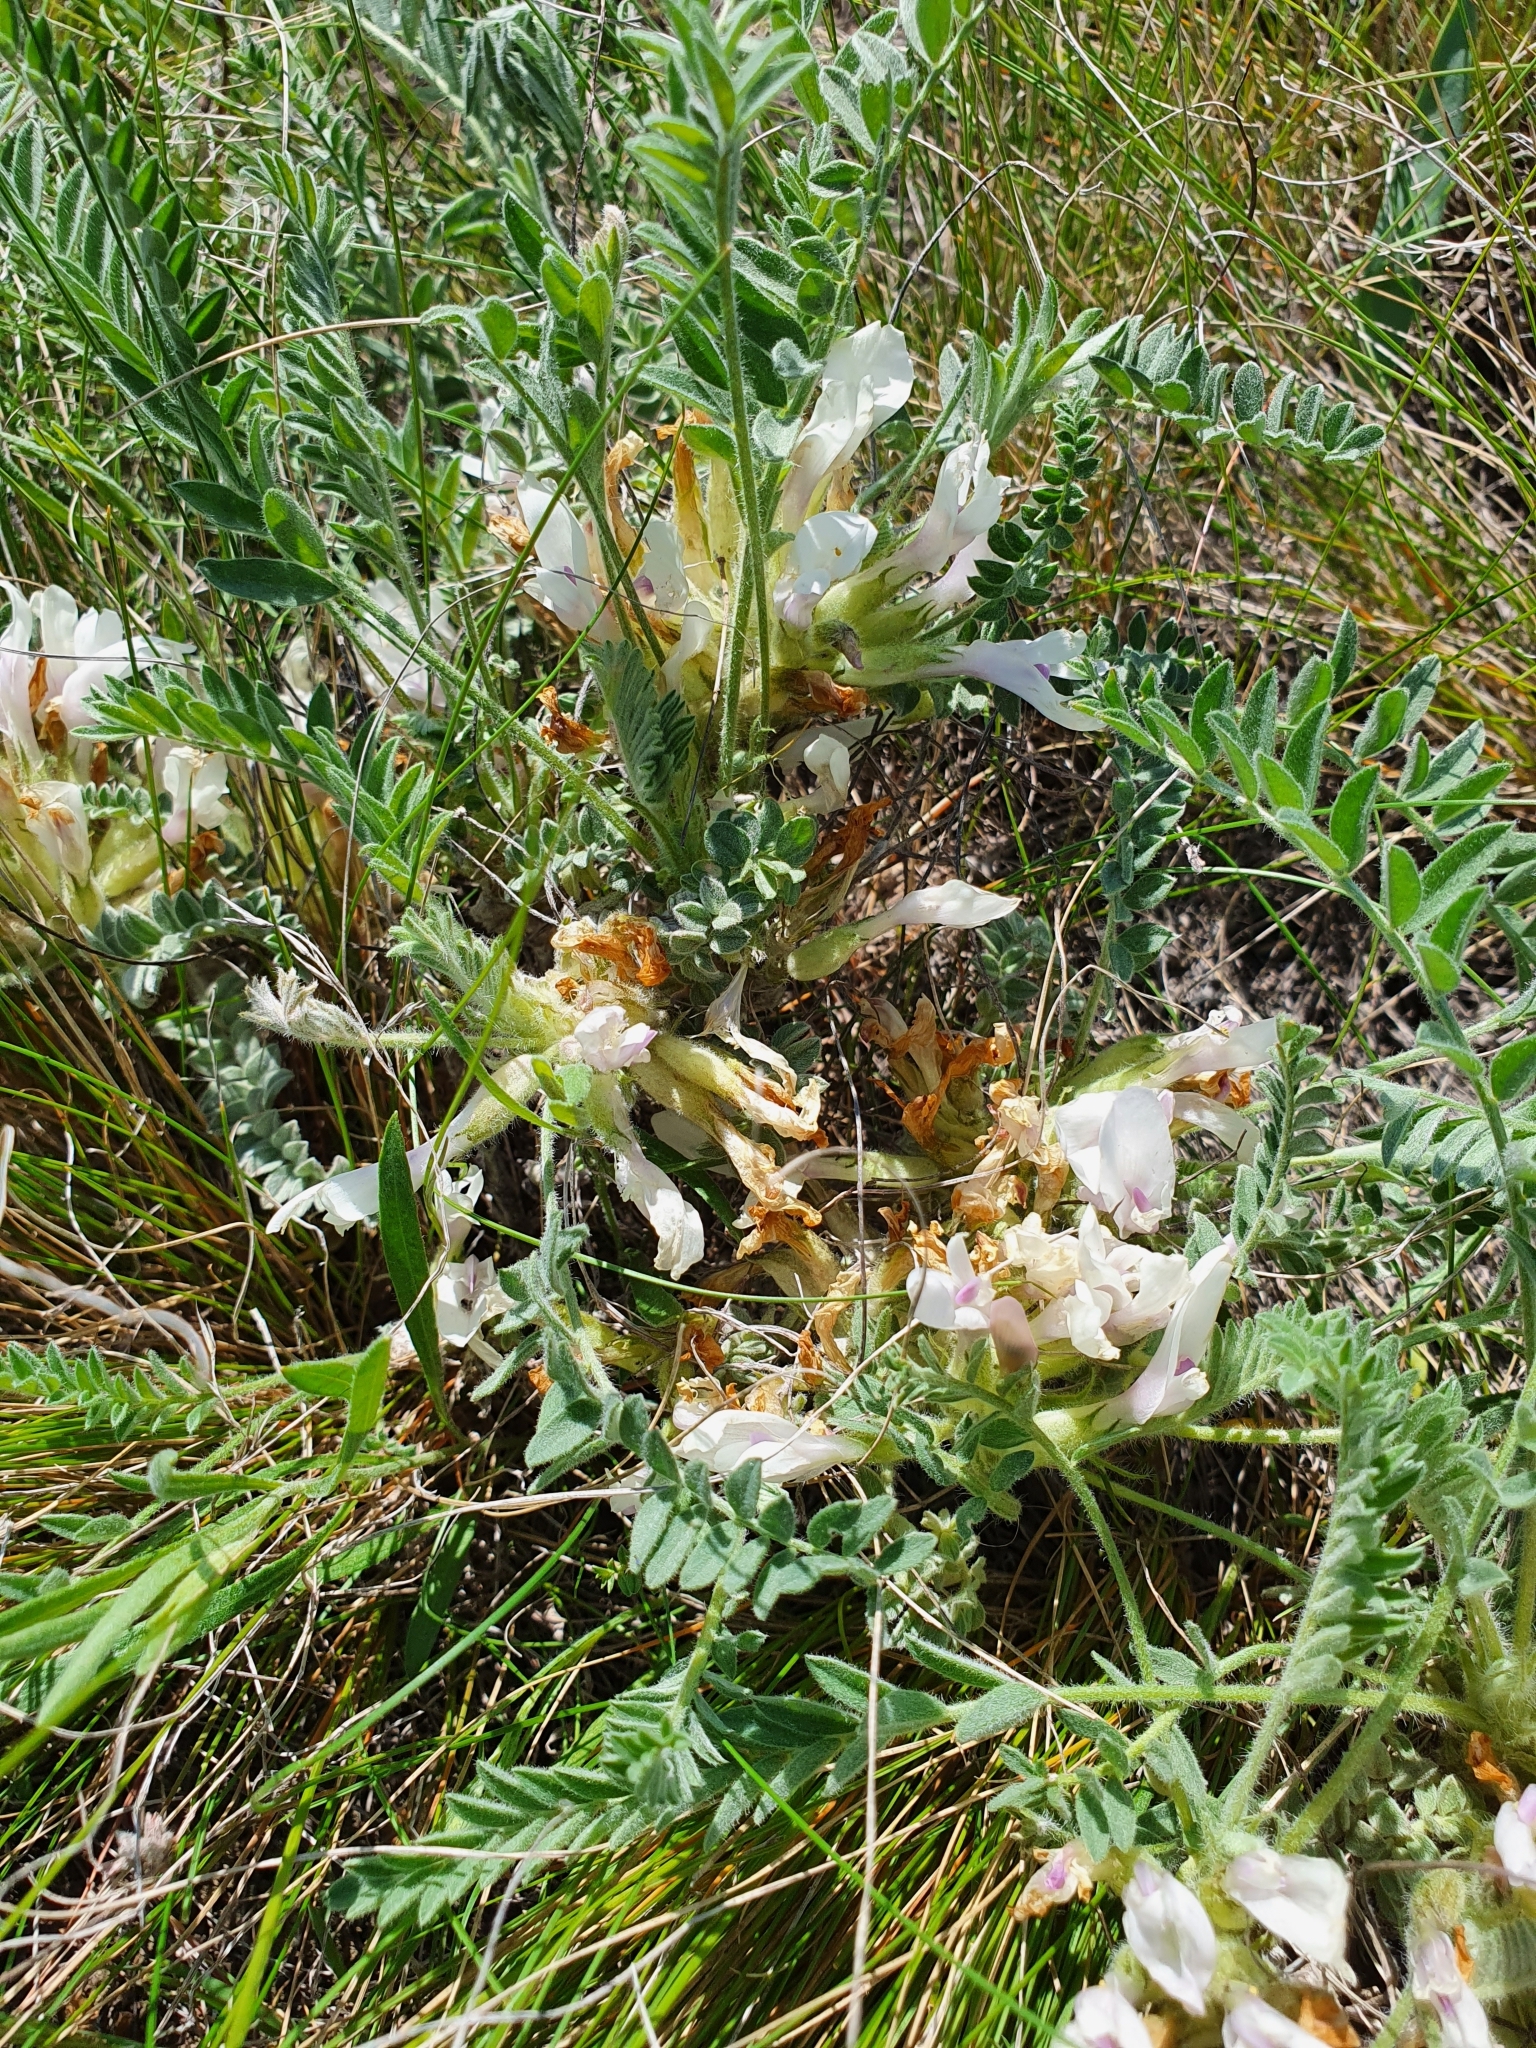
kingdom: Plantae
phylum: Tracheophyta
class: Magnoliopsida
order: Fabales
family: Fabaceae
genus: Astragalus
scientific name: Astragalus testiculatus
